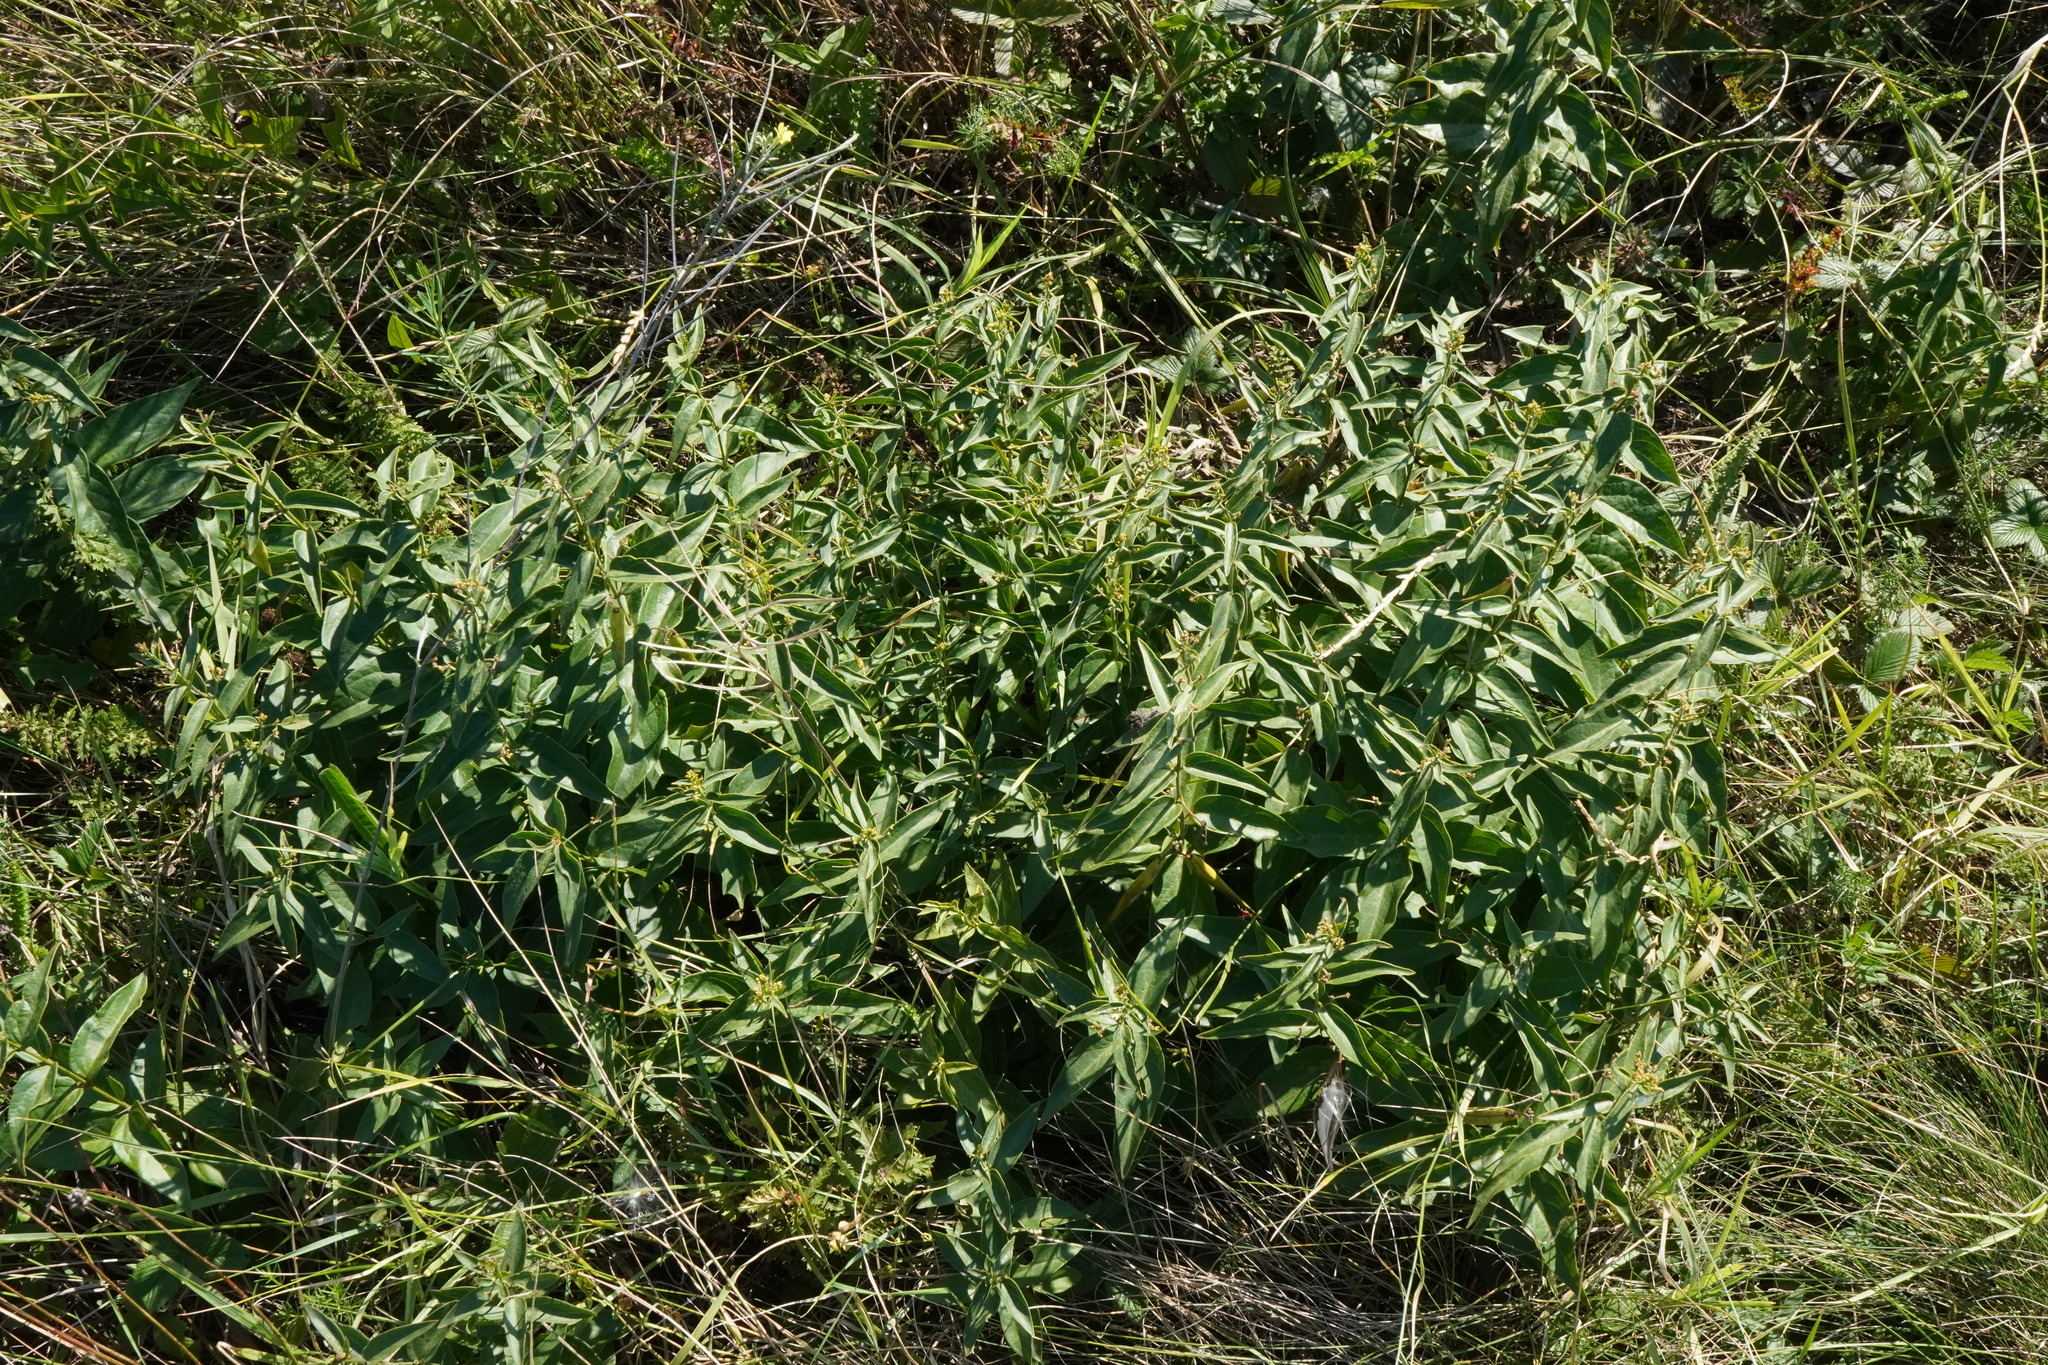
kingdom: Plantae
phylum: Tracheophyta
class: Magnoliopsida
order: Gentianales
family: Apocynaceae
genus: Vincetoxicum
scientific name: Vincetoxicum hirundinaria
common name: White swallowwort
